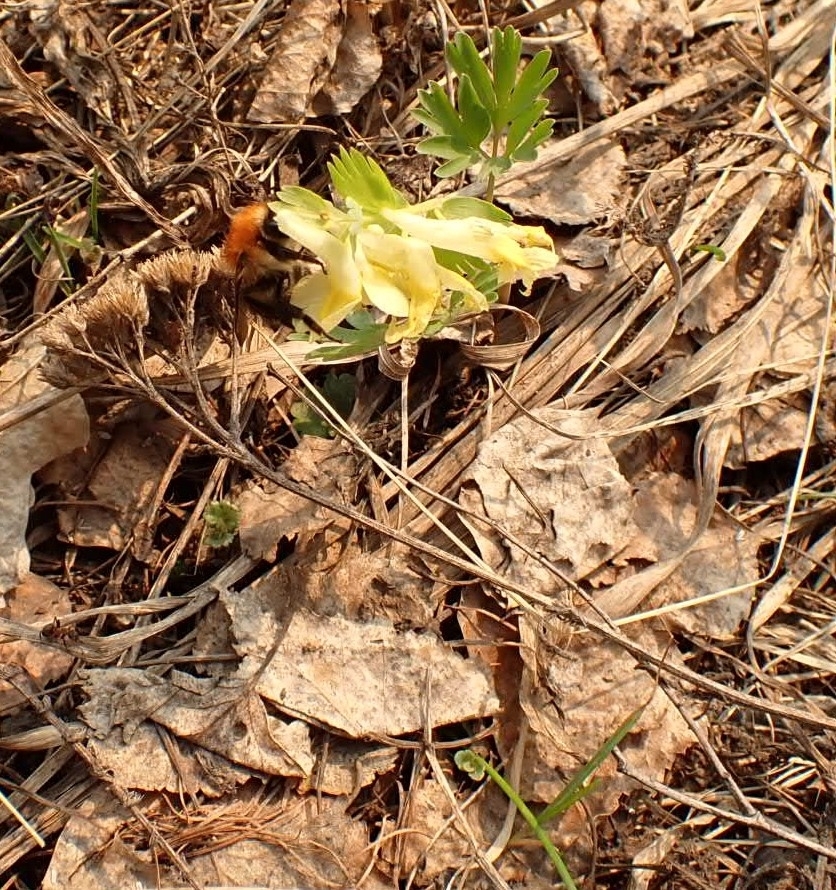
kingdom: Plantae
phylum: Tracheophyta
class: Magnoliopsida
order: Ranunculales
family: Papaveraceae
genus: Corydalis
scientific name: Corydalis bracteata
